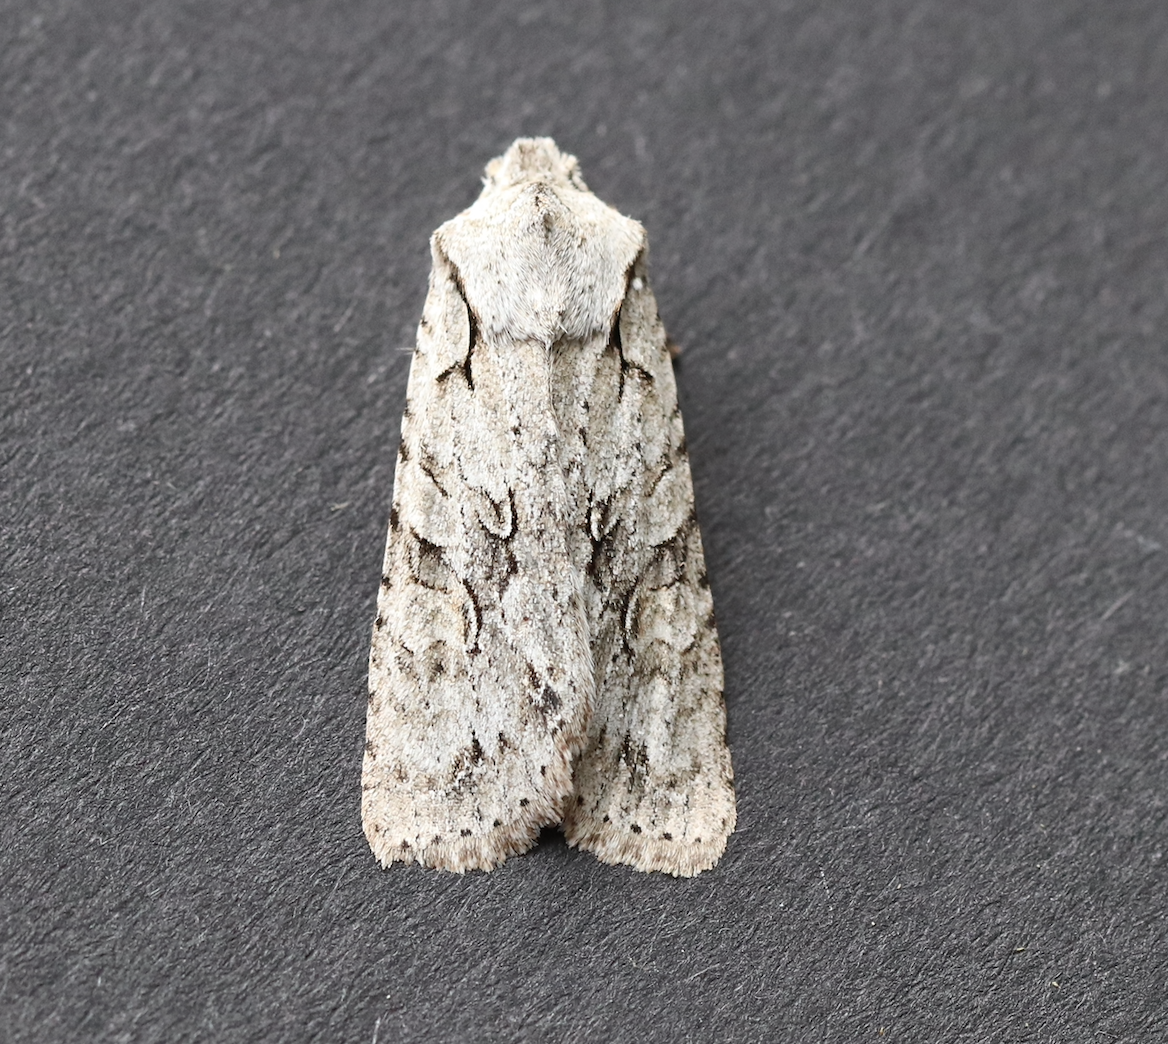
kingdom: Animalia
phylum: Arthropoda
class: Insecta
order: Lepidoptera
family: Noctuidae
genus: Lithophane
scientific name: Lithophane ornitopus
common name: Grey shoulder-knot
